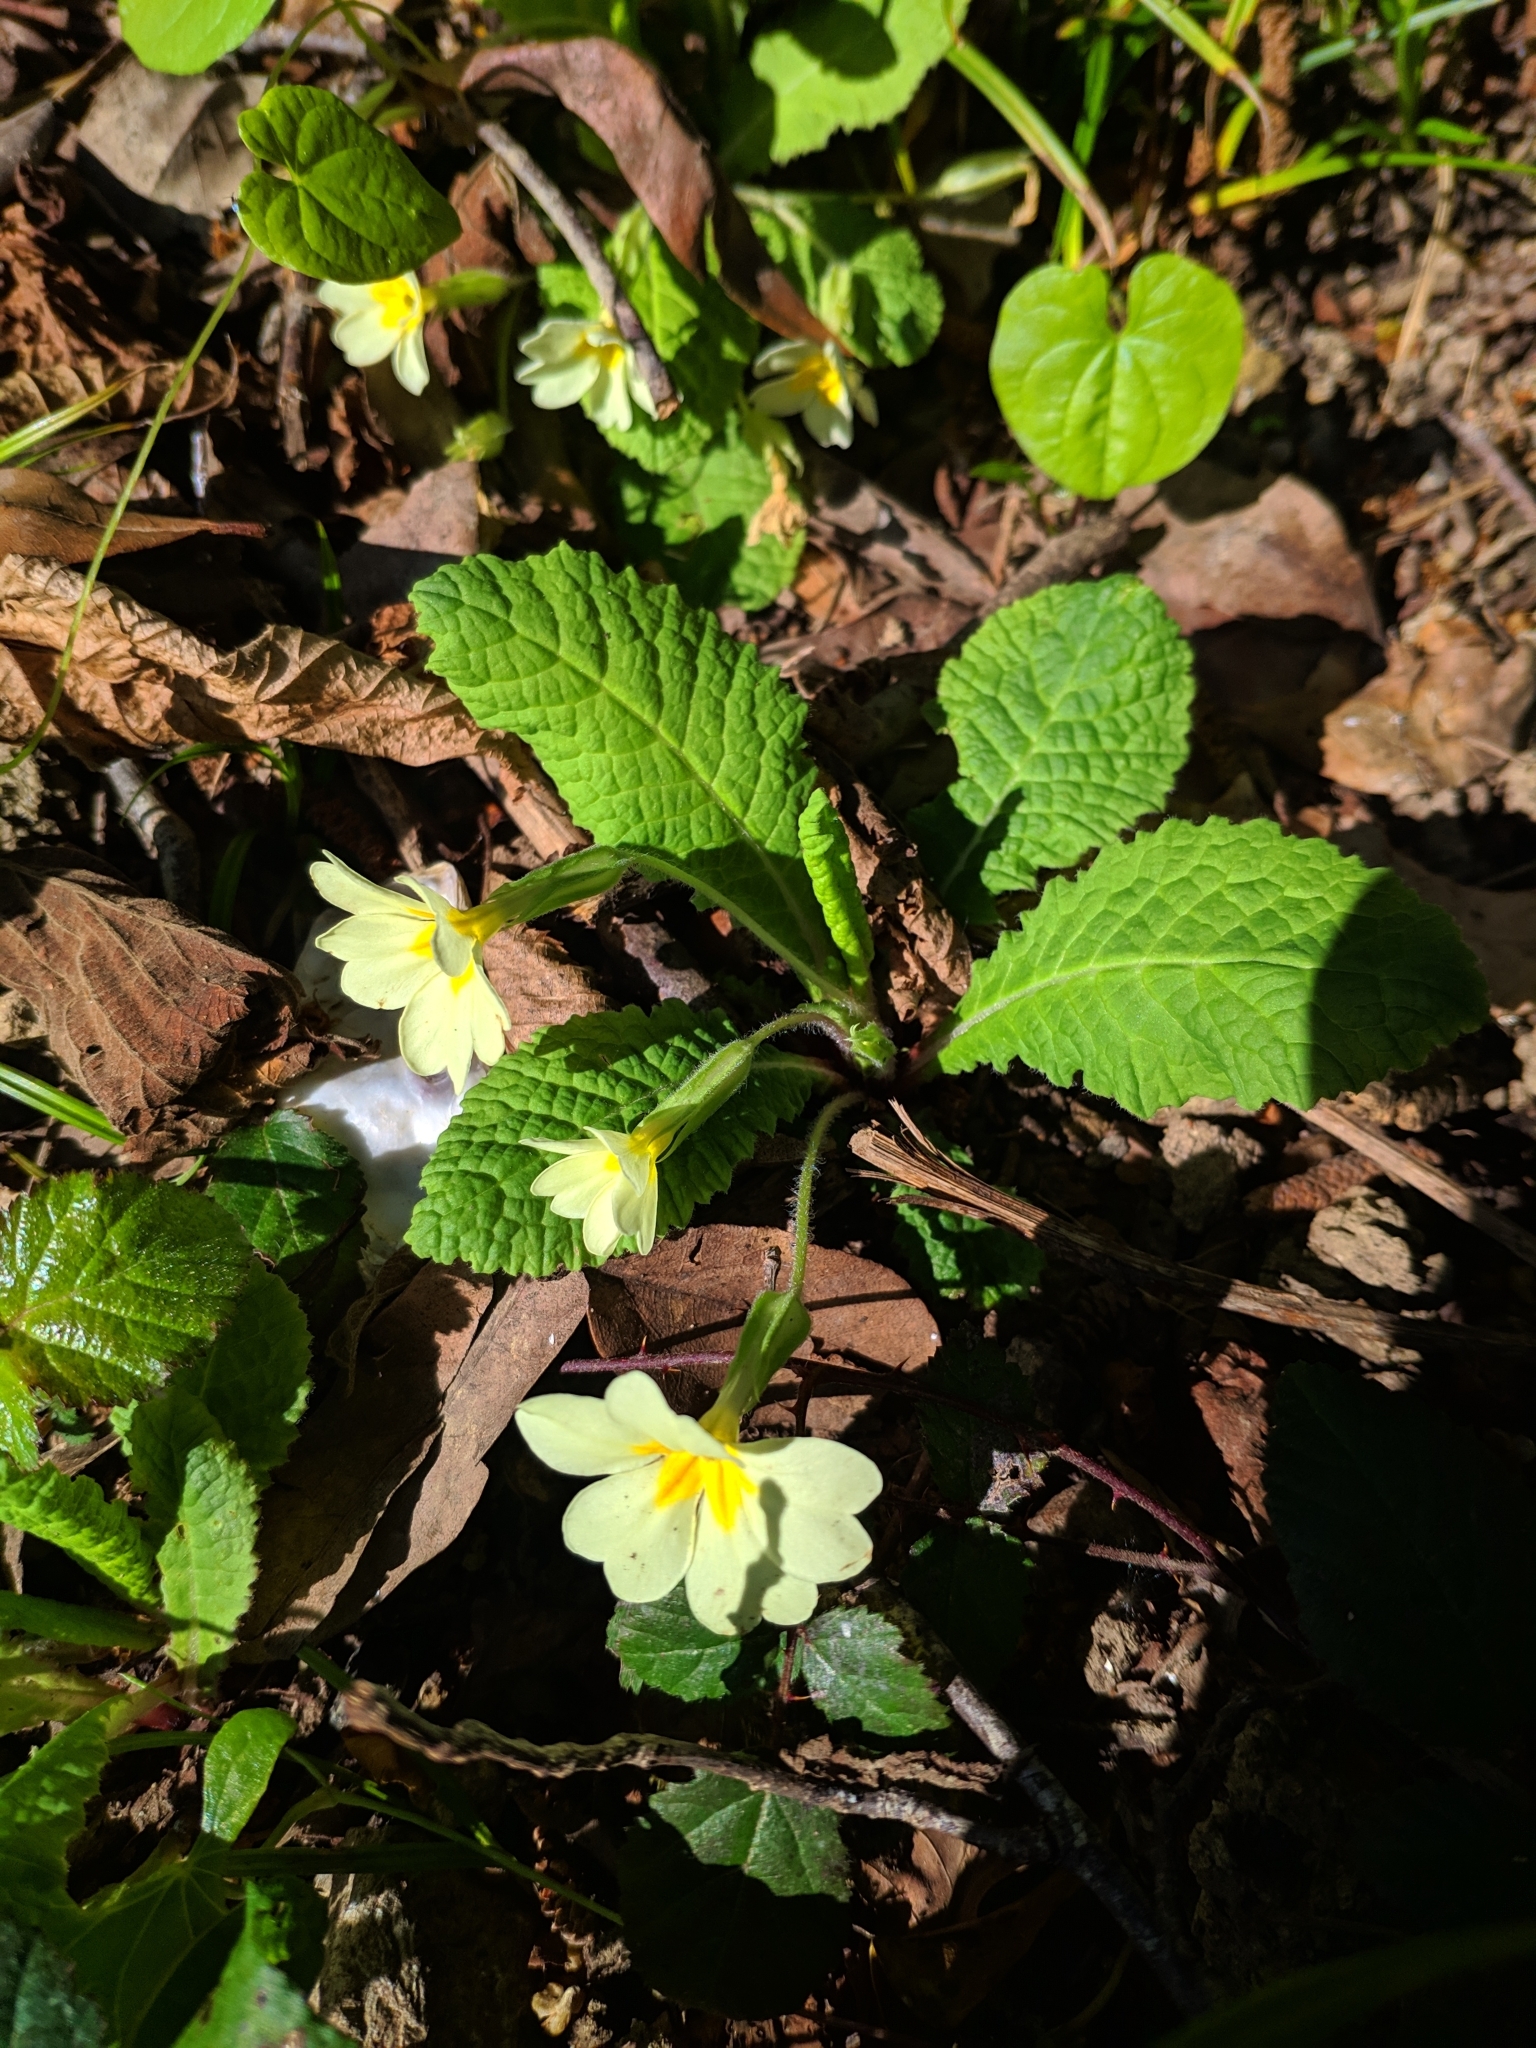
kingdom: Plantae
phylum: Tracheophyta
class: Magnoliopsida
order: Ericales
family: Primulaceae
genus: Primula
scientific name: Primula vulgaris
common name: Primrose
